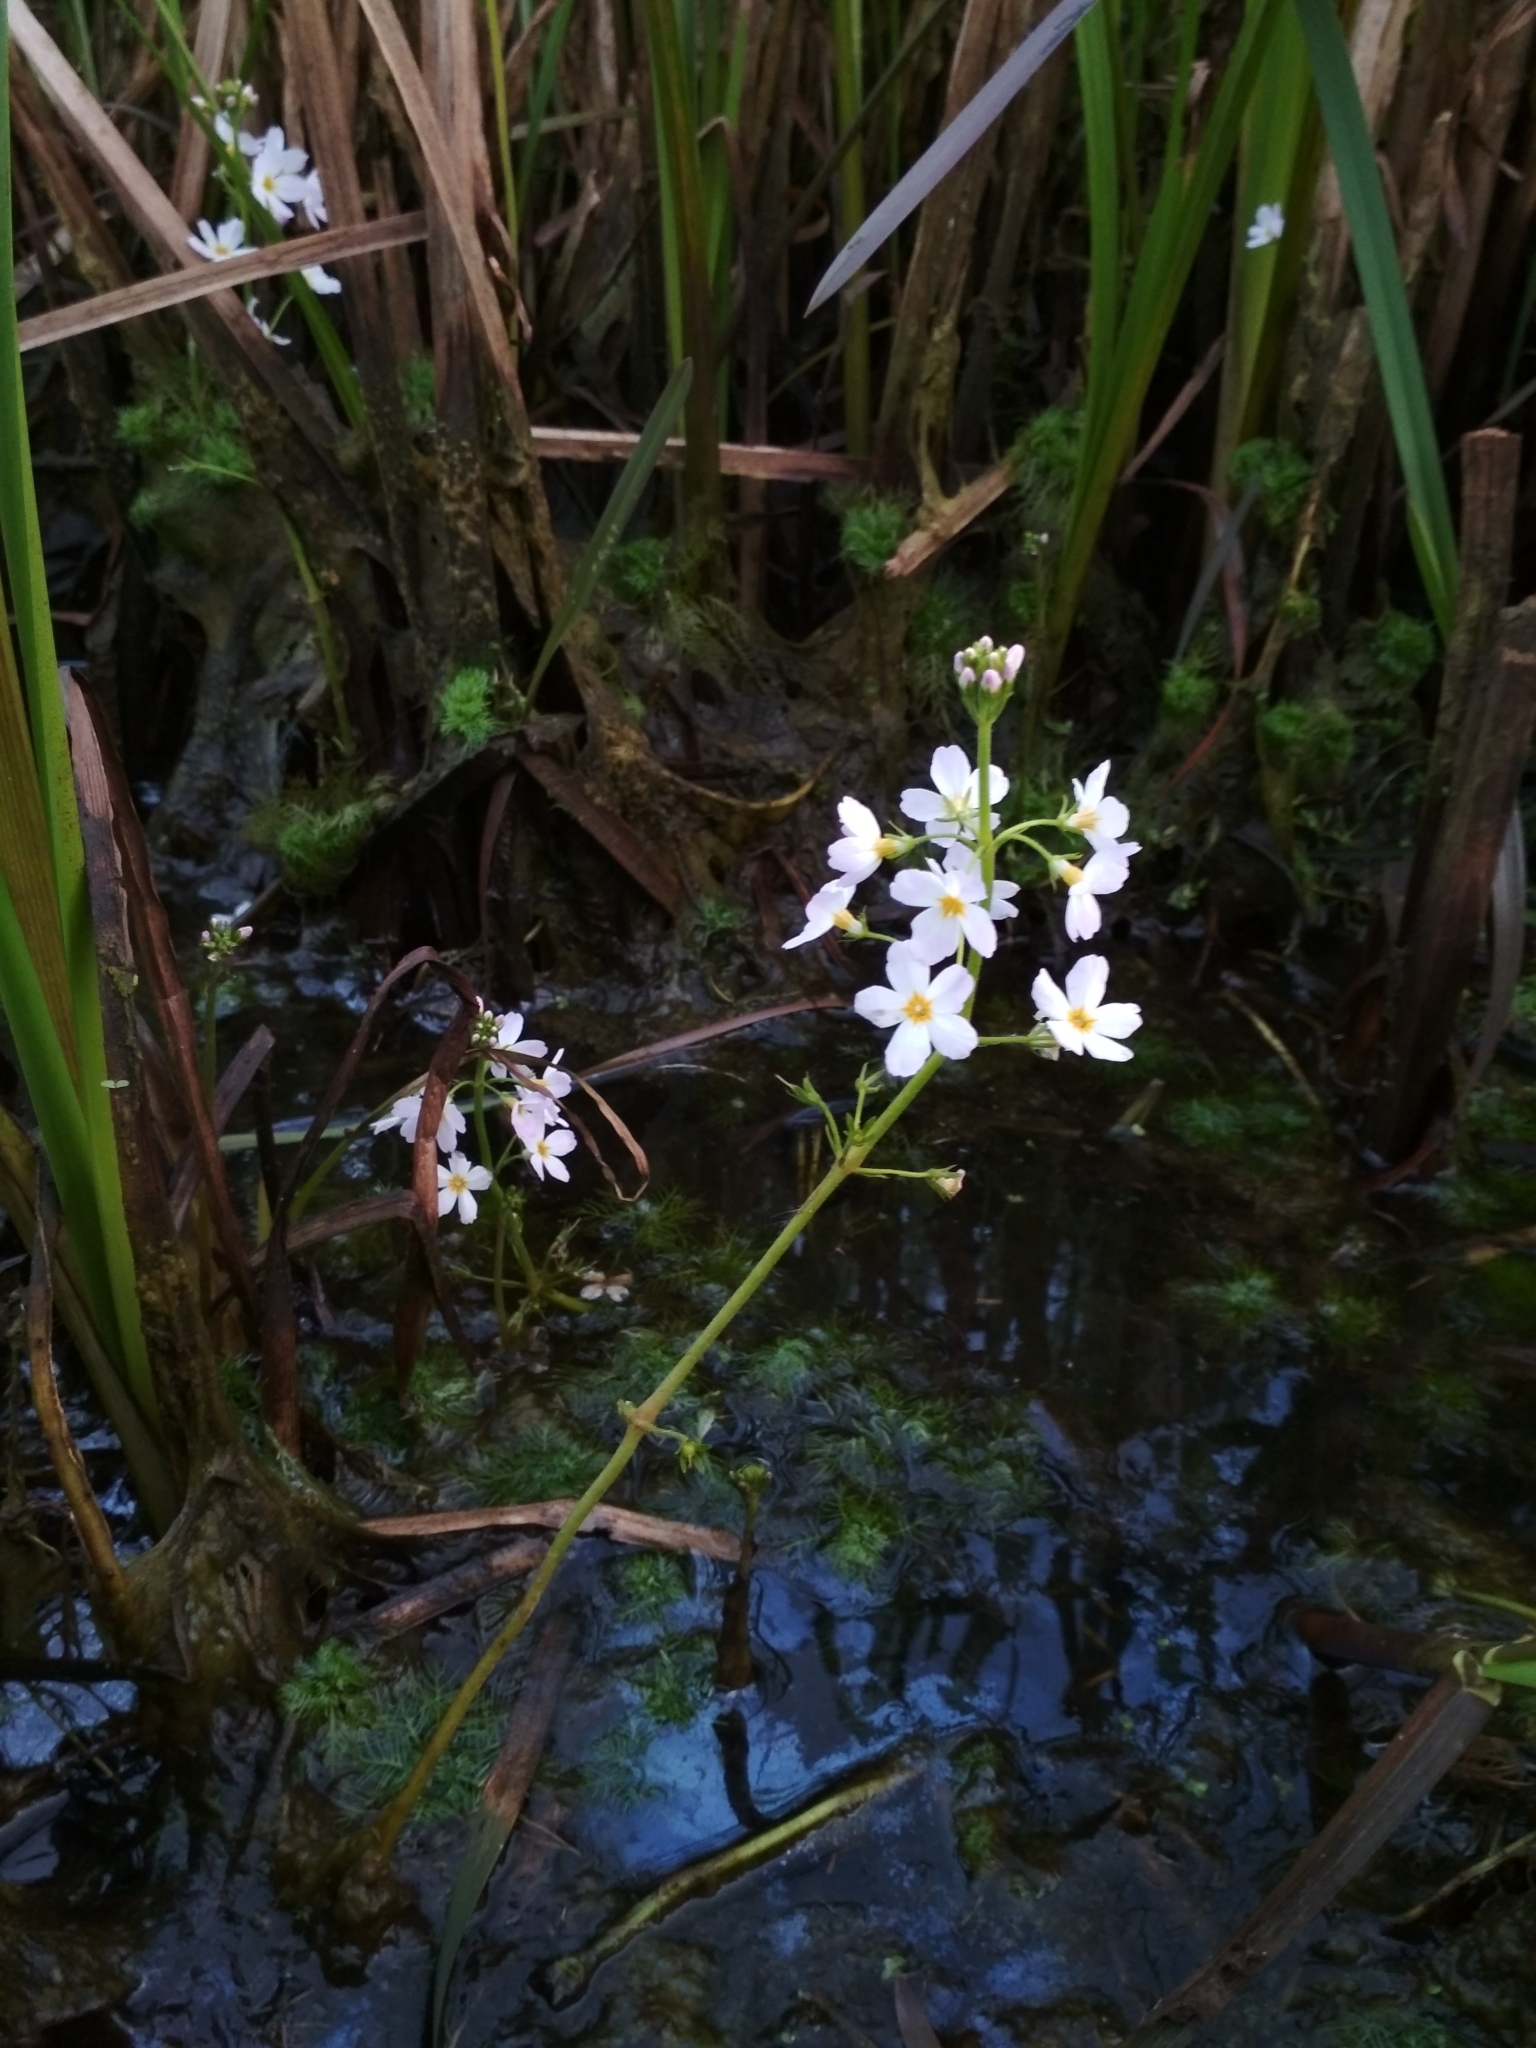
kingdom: Plantae
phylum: Tracheophyta
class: Magnoliopsida
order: Ericales
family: Primulaceae
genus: Hottonia
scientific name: Hottonia palustris
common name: Water-violet
